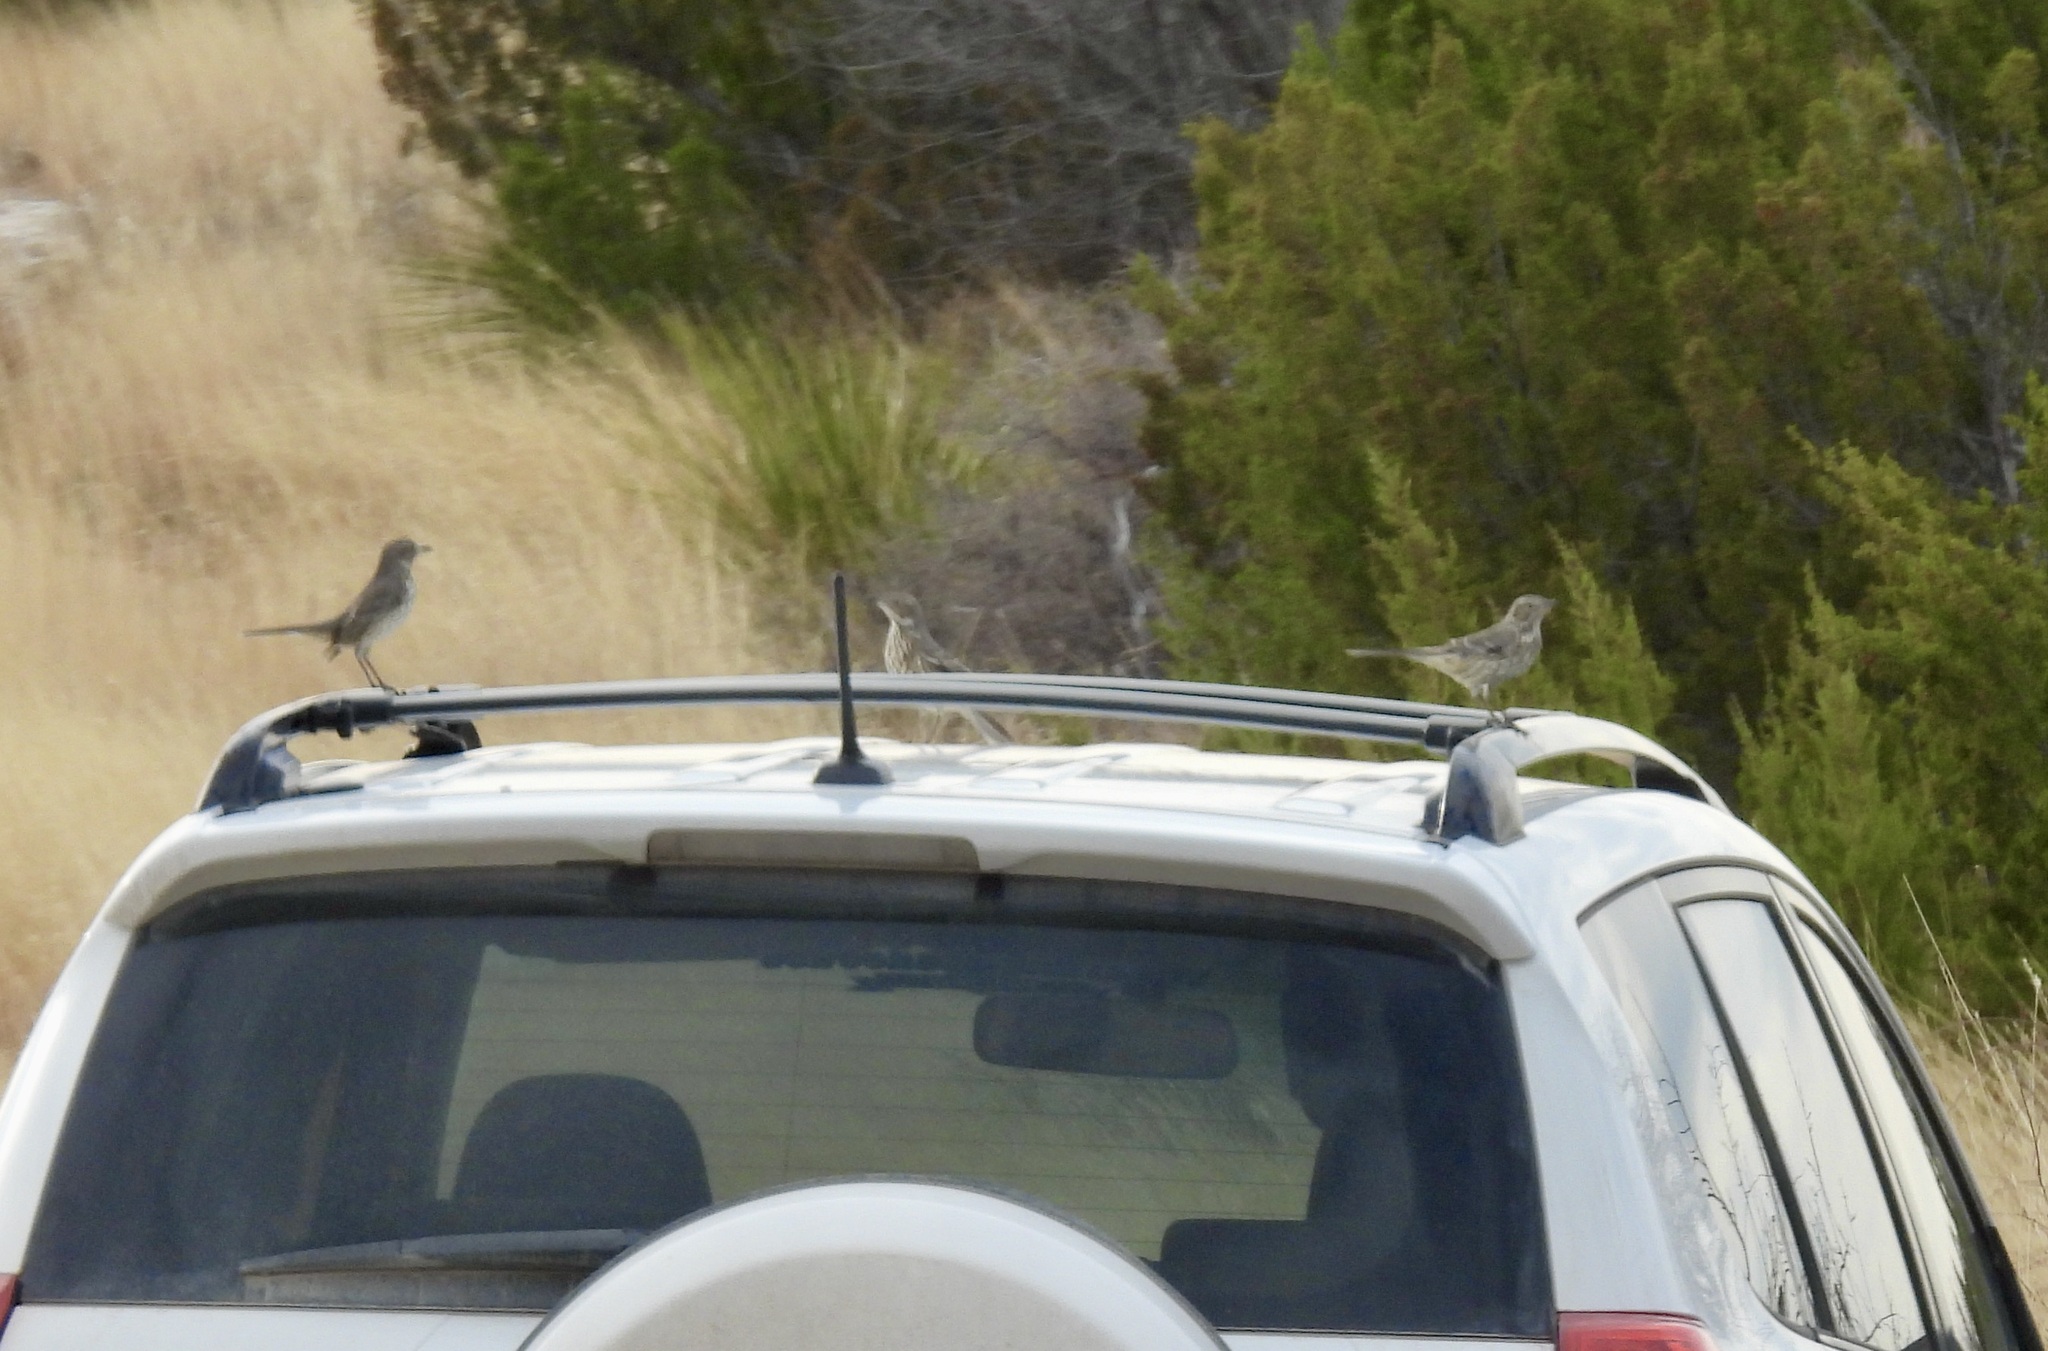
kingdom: Animalia
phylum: Chordata
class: Aves
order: Passeriformes
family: Mimidae
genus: Oreoscoptes
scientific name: Oreoscoptes montanus
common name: Sage thrasher
